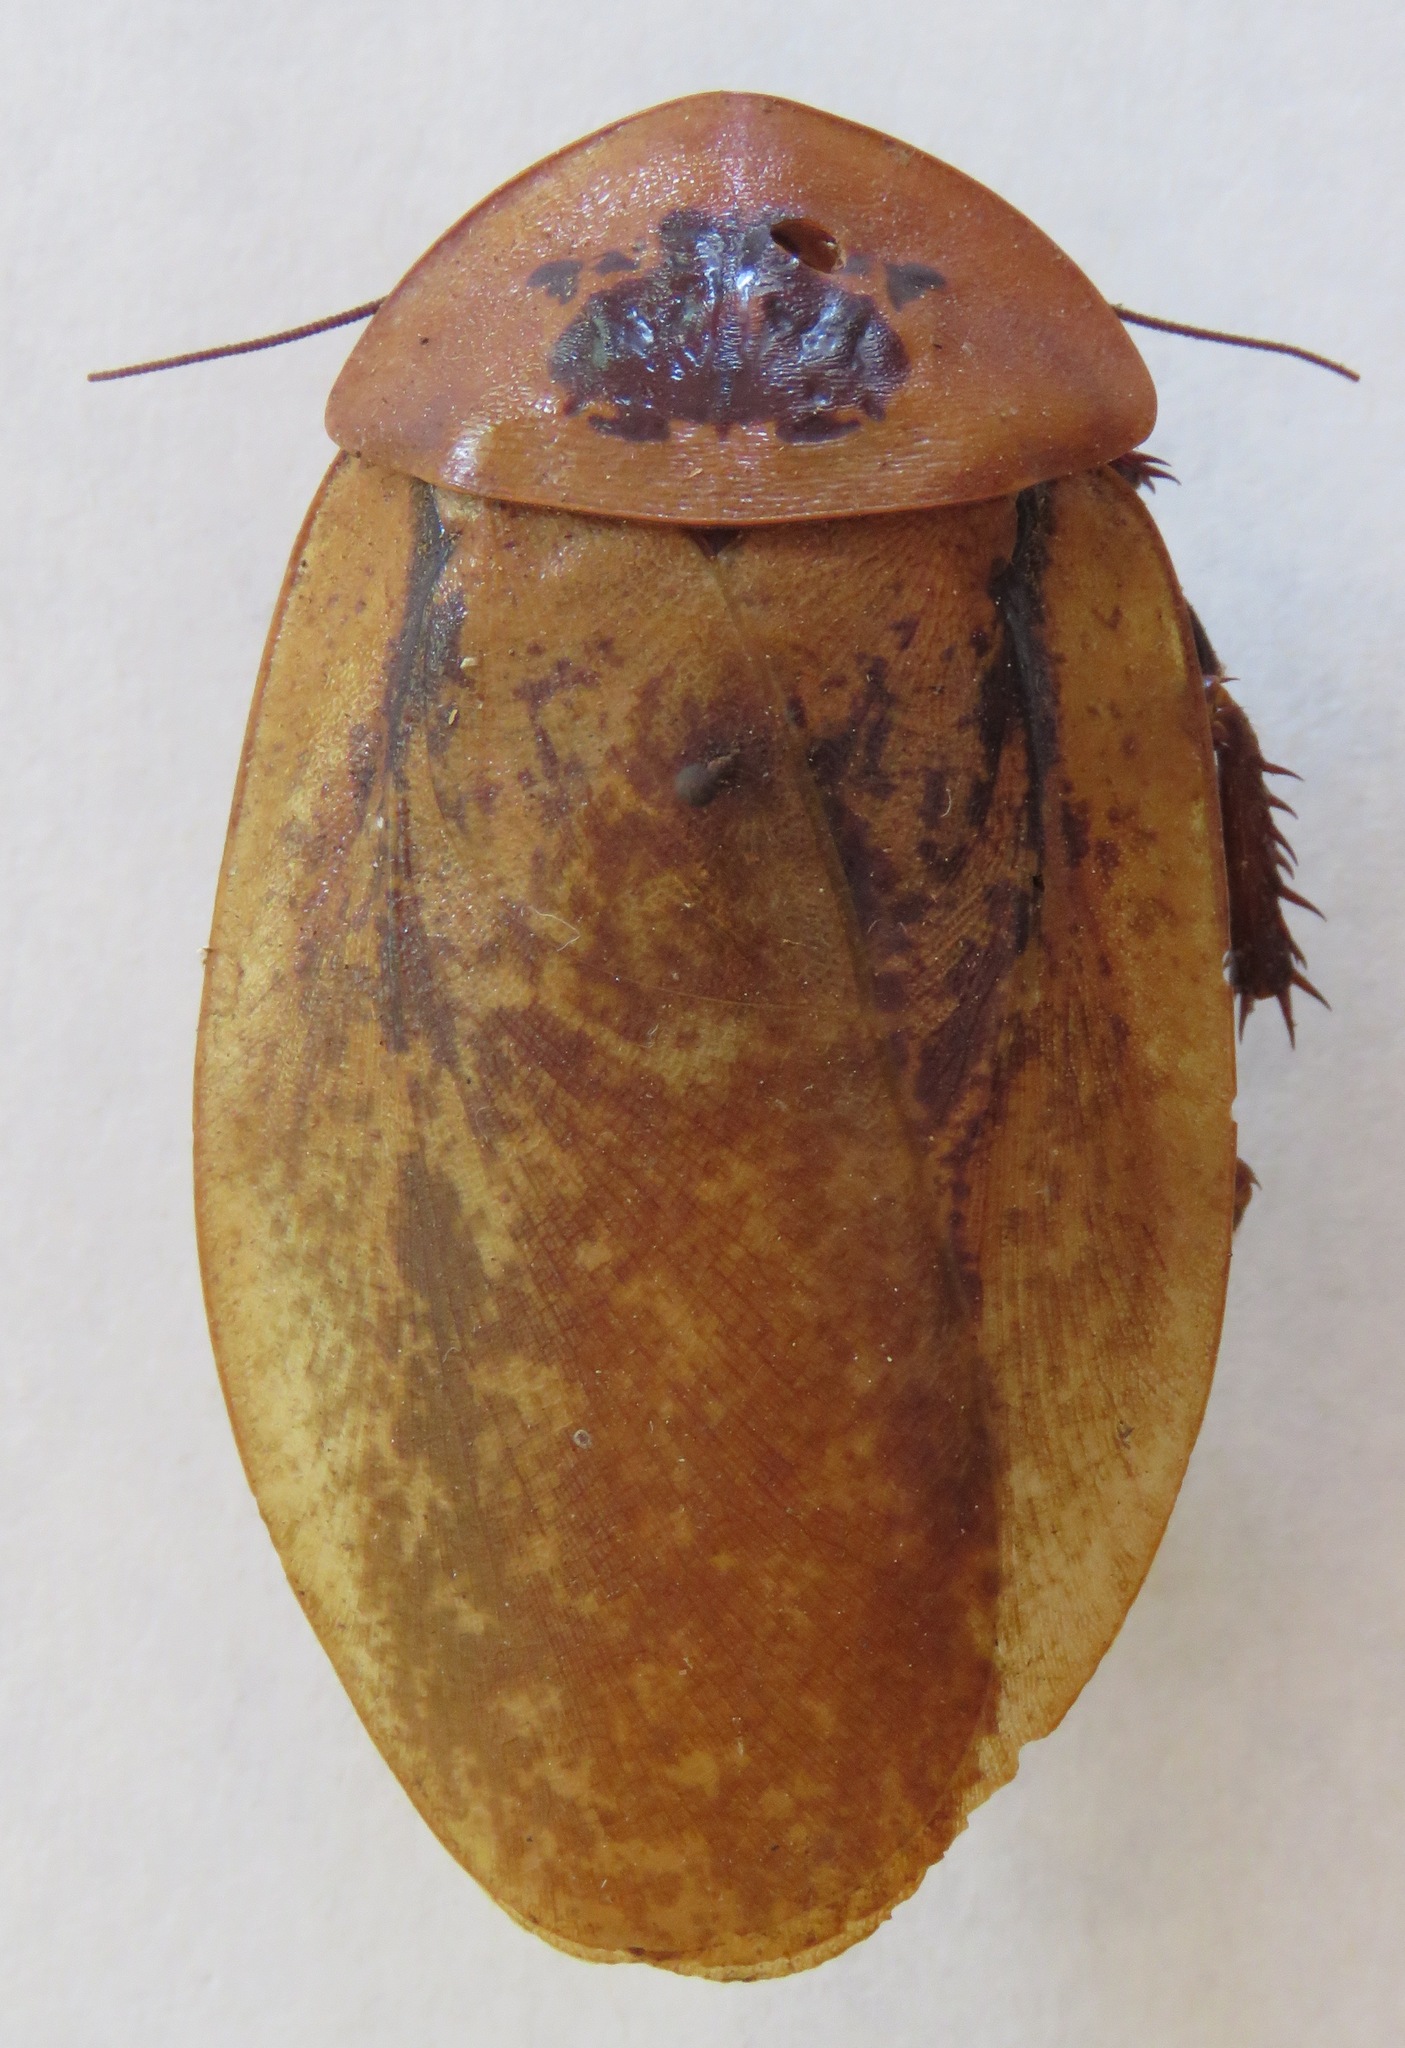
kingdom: Animalia
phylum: Arthropoda
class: Insecta
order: Blattodea
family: Blaberidae
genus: Archimandrita
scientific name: Archimandrita marmorata
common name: Marbled gargantuan cockroach
